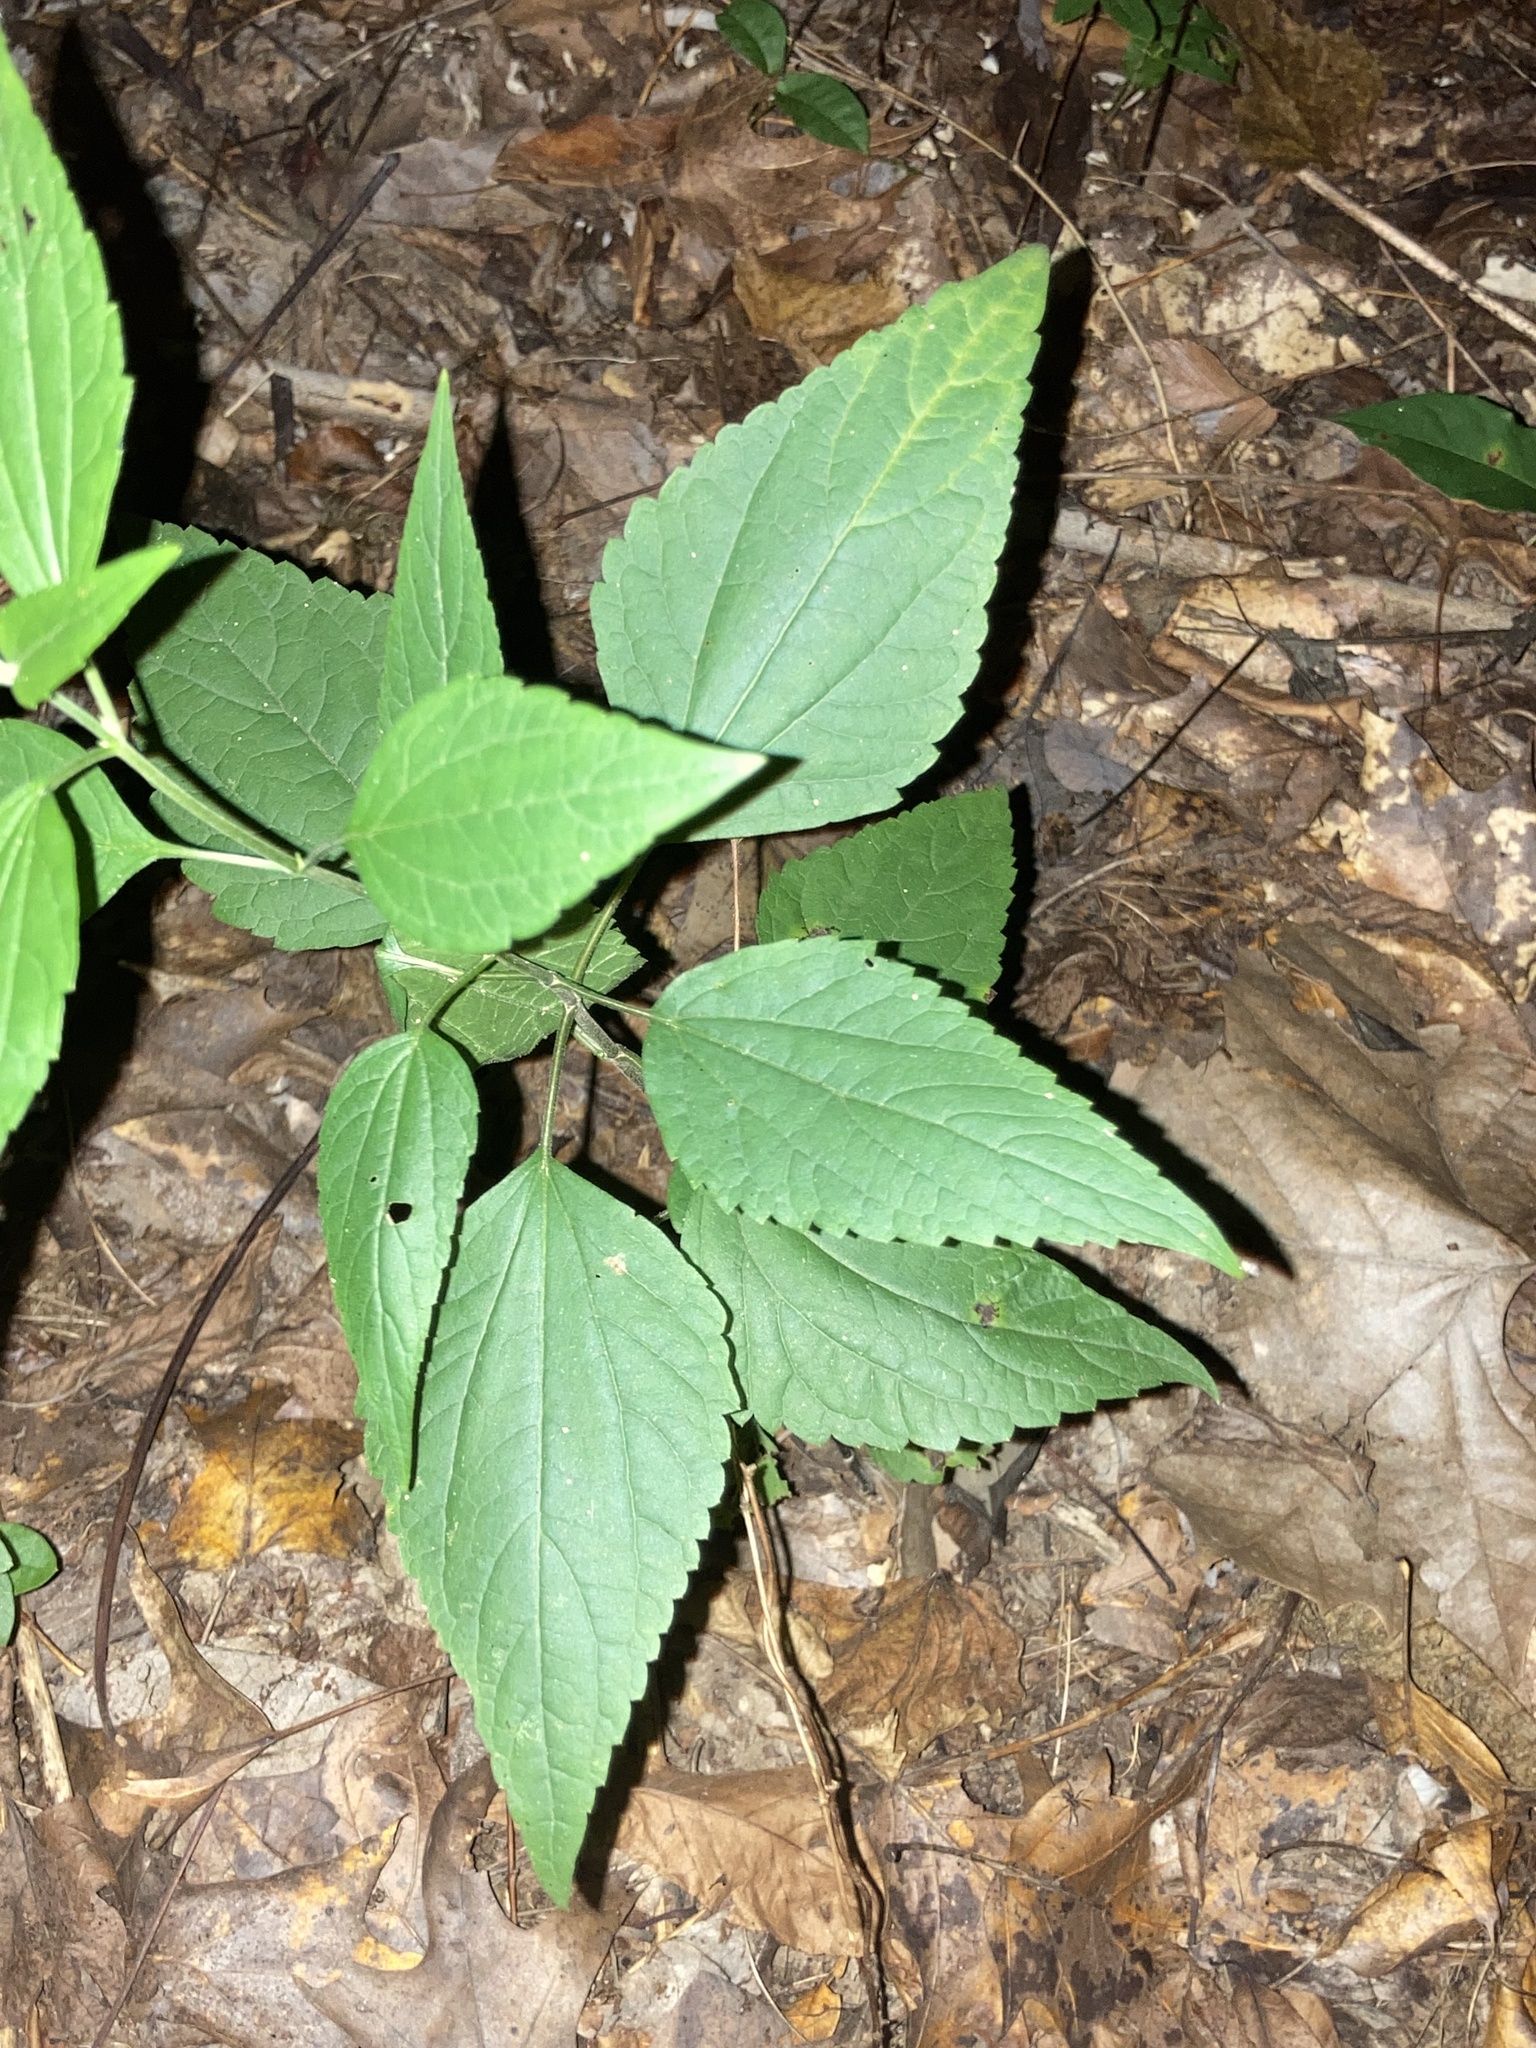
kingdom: Plantae
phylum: Tracheophyta
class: Magnoliopsida
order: Asterales
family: Asteraceae
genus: Ageratina
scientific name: Ageratina altissima
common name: White snakeroot
